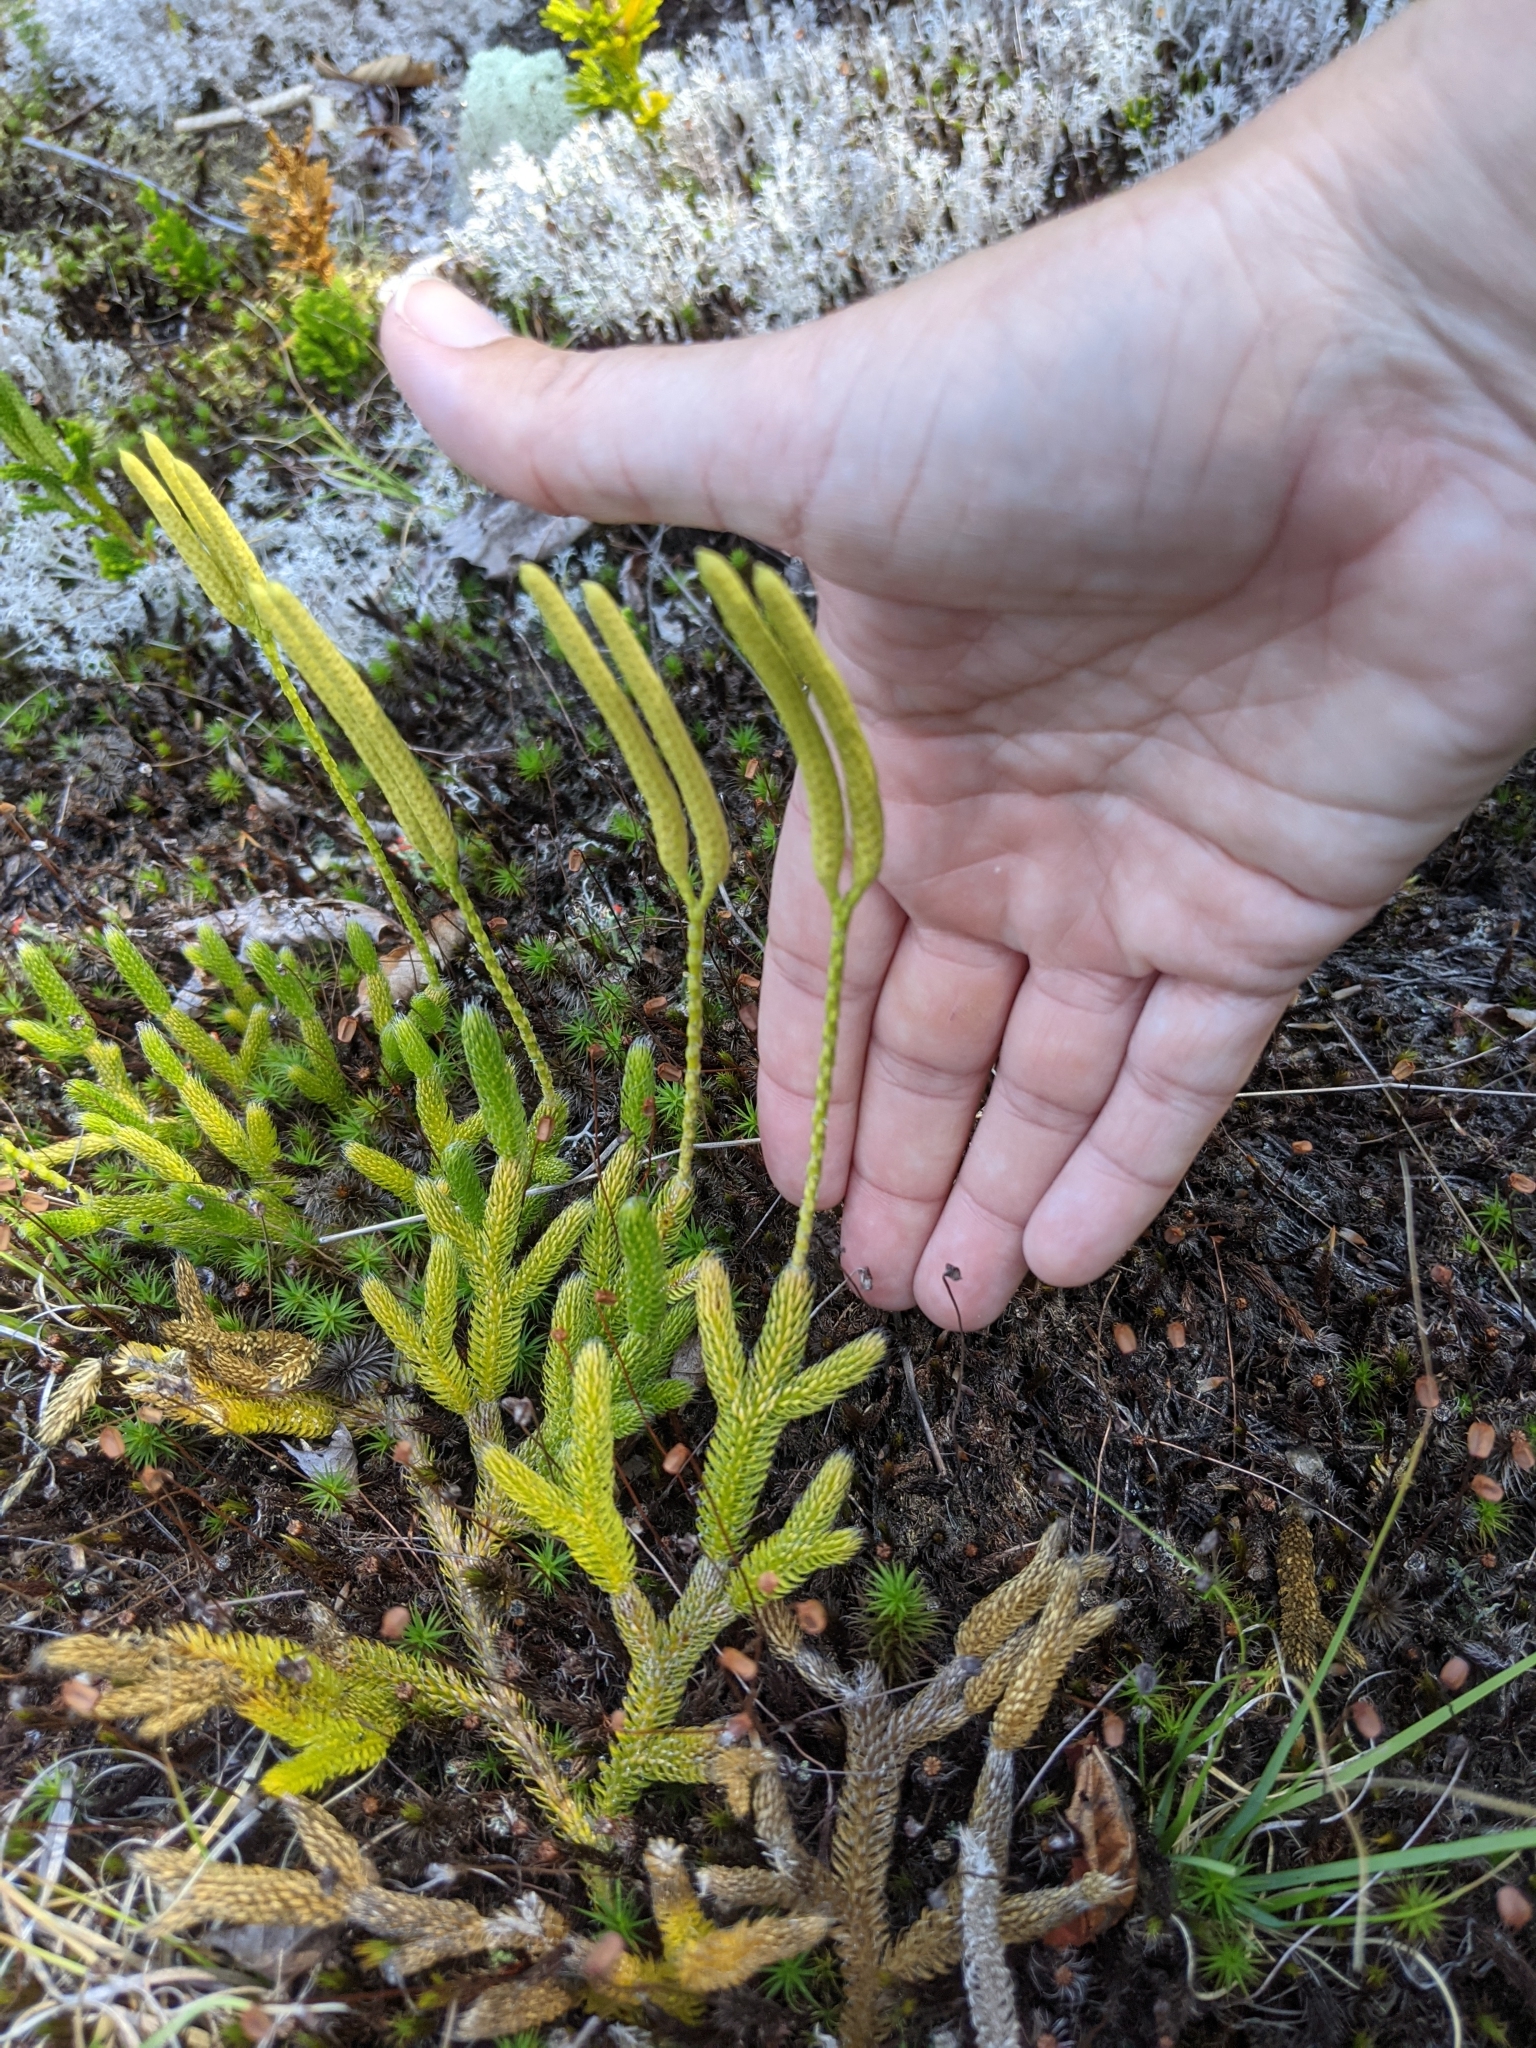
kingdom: Plantae
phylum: Tracheophyta
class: Lycopodiopsida
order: Lycopodiales
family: Lycopodiaceae
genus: Lycopodium
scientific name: Lycopodium clavatum
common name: Stag's-horn clubmoss
